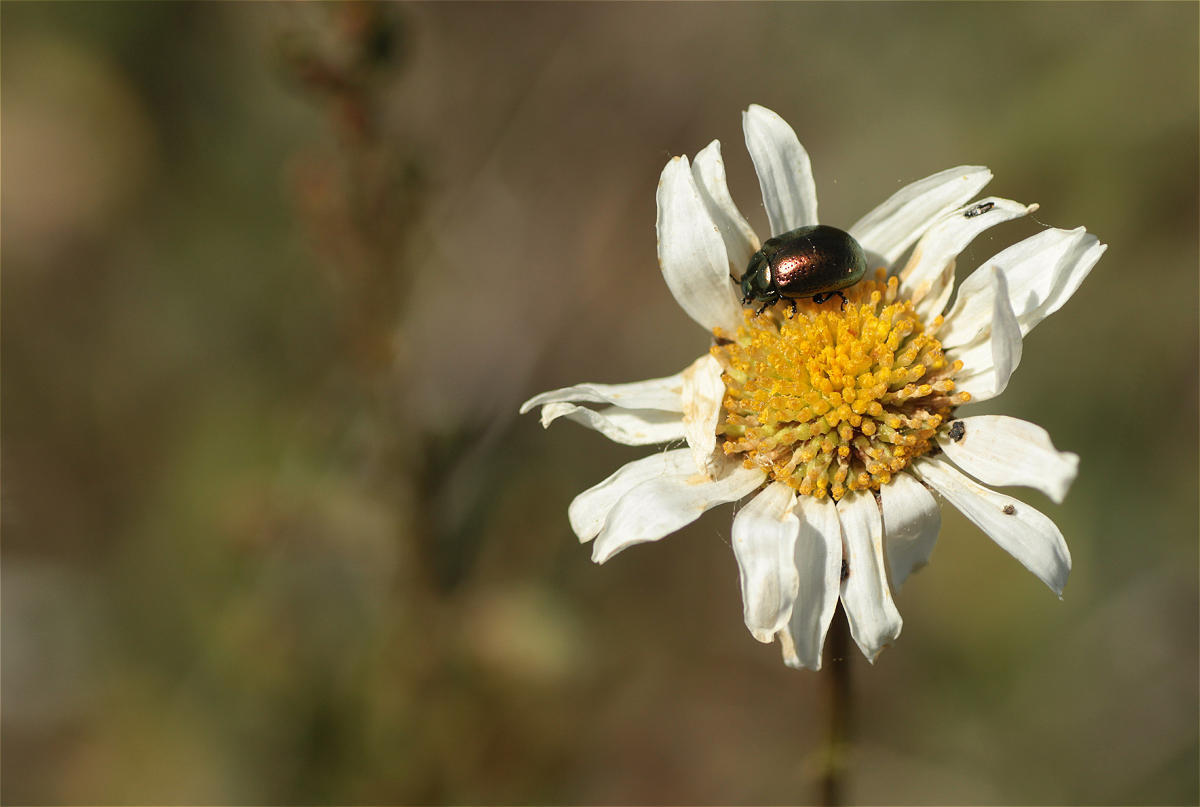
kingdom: Plantae
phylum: Tracheophyta
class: Magnoliopsida
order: Asterales
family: Asteraceae
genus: Leucanthemum
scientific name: Leucanthemum vulgare
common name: Oxeye daisy
